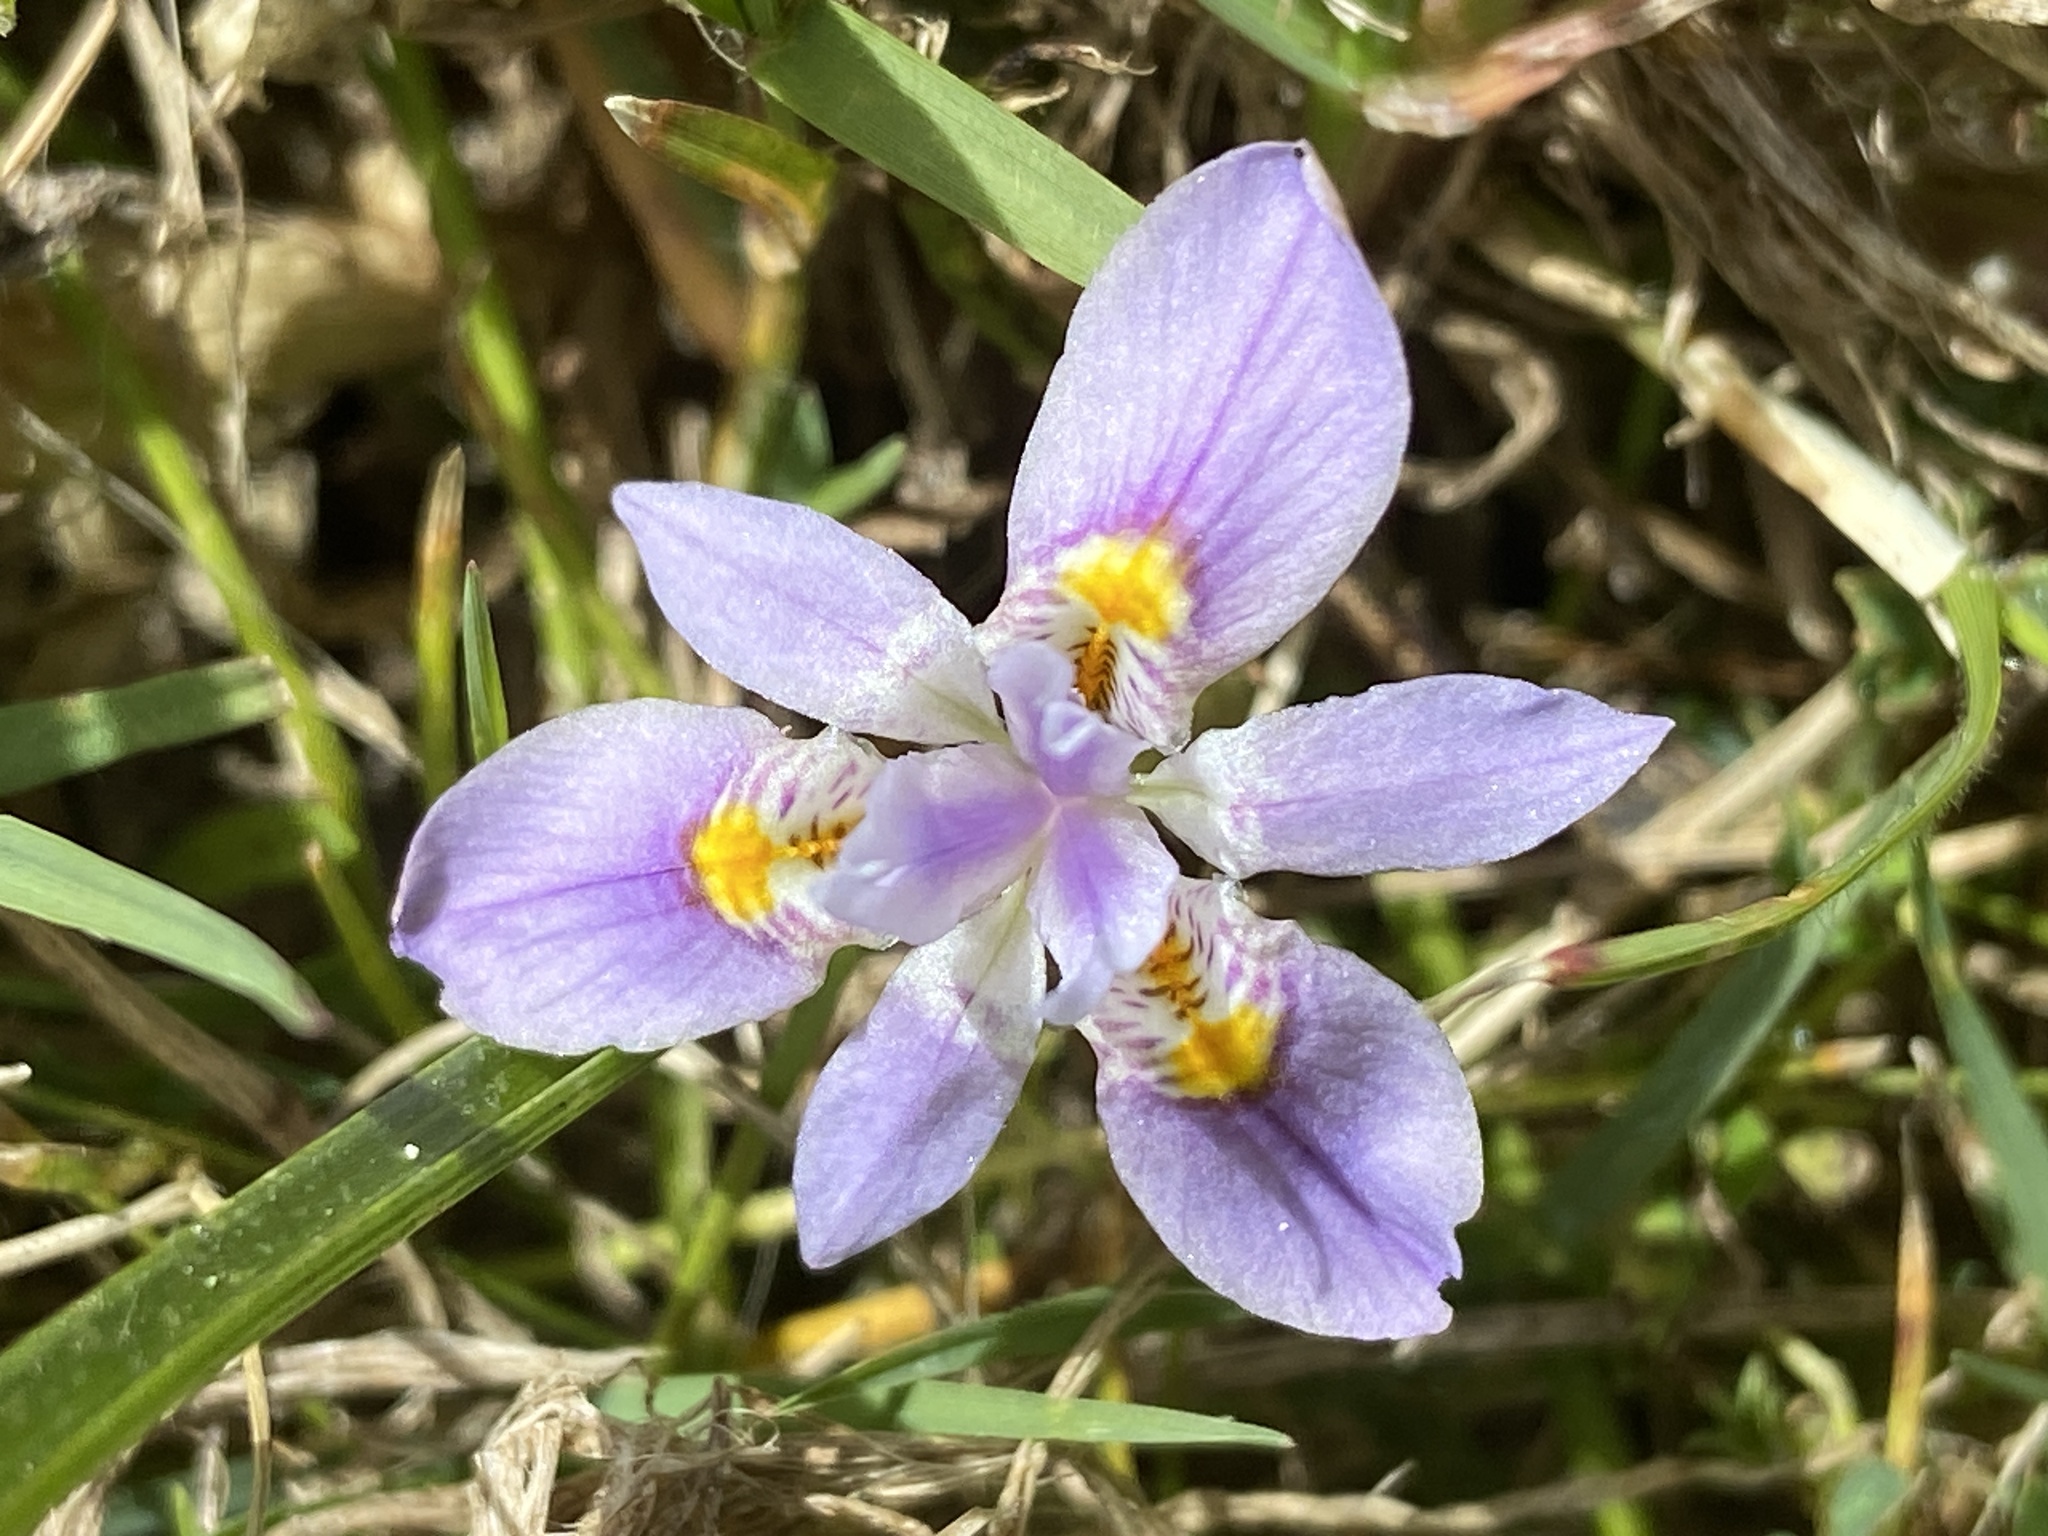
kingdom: Plantae
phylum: Tracheophyta
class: Liliopsida
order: Asparagales
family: Iridaceae
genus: Moraea
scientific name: Moraea setifolia
